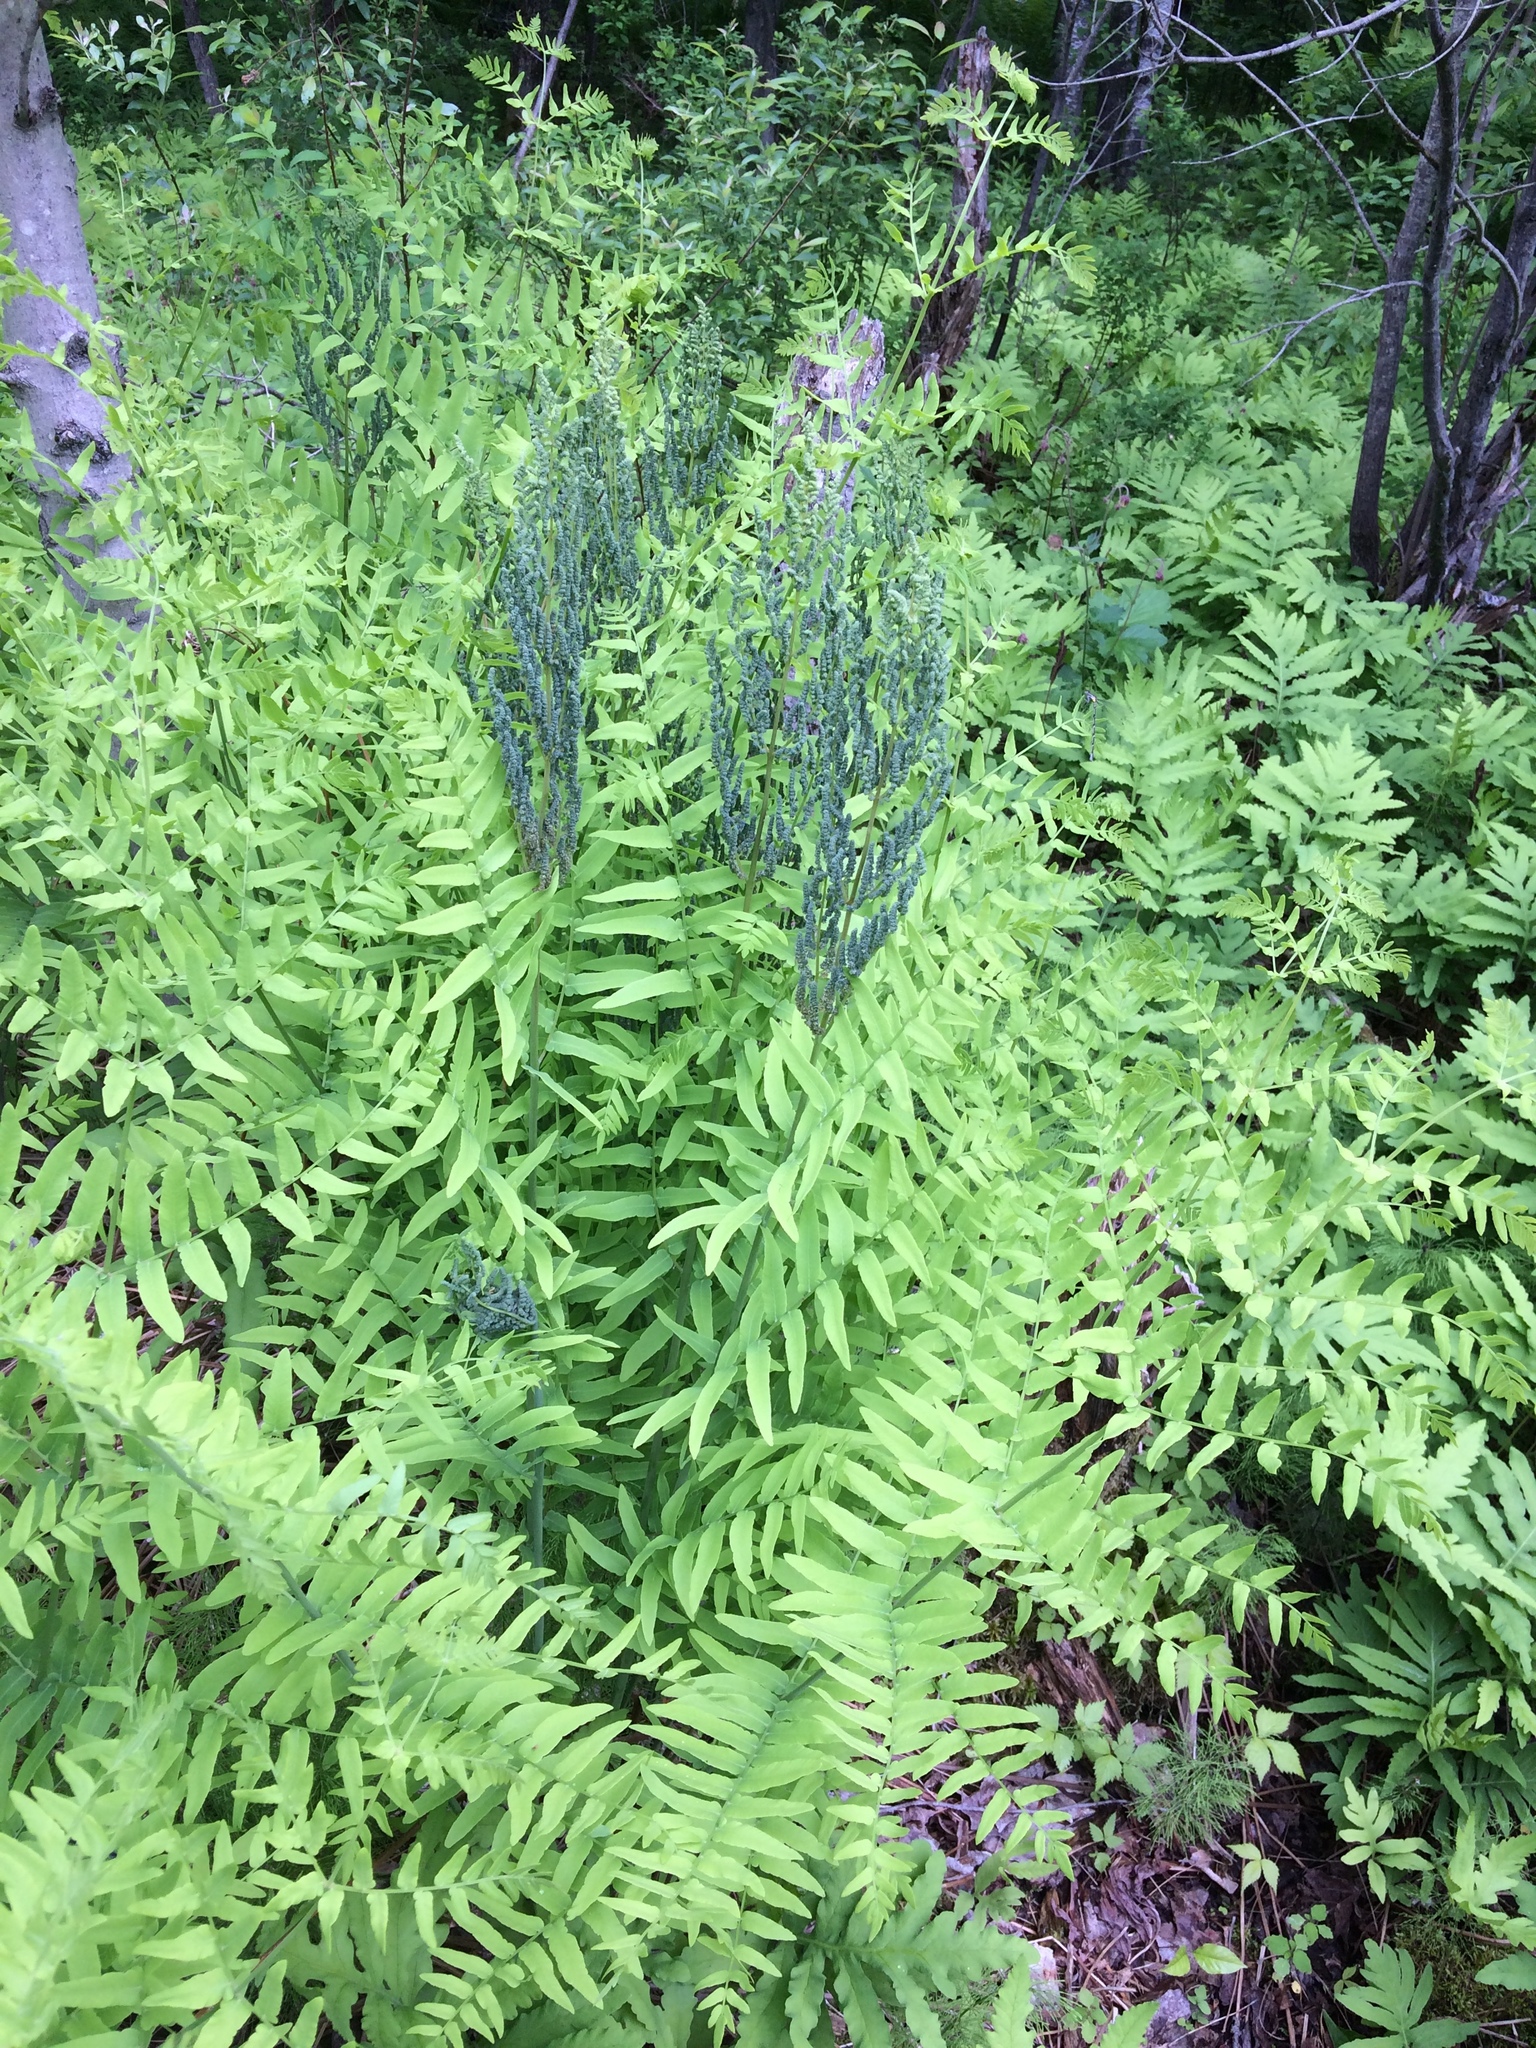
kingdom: Plantae
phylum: Tracheophyta
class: Polypodiopsida
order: Osmundales
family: Osmundaceae
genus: Osmunda
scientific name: Osmunda spectabilis
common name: American royal fern
